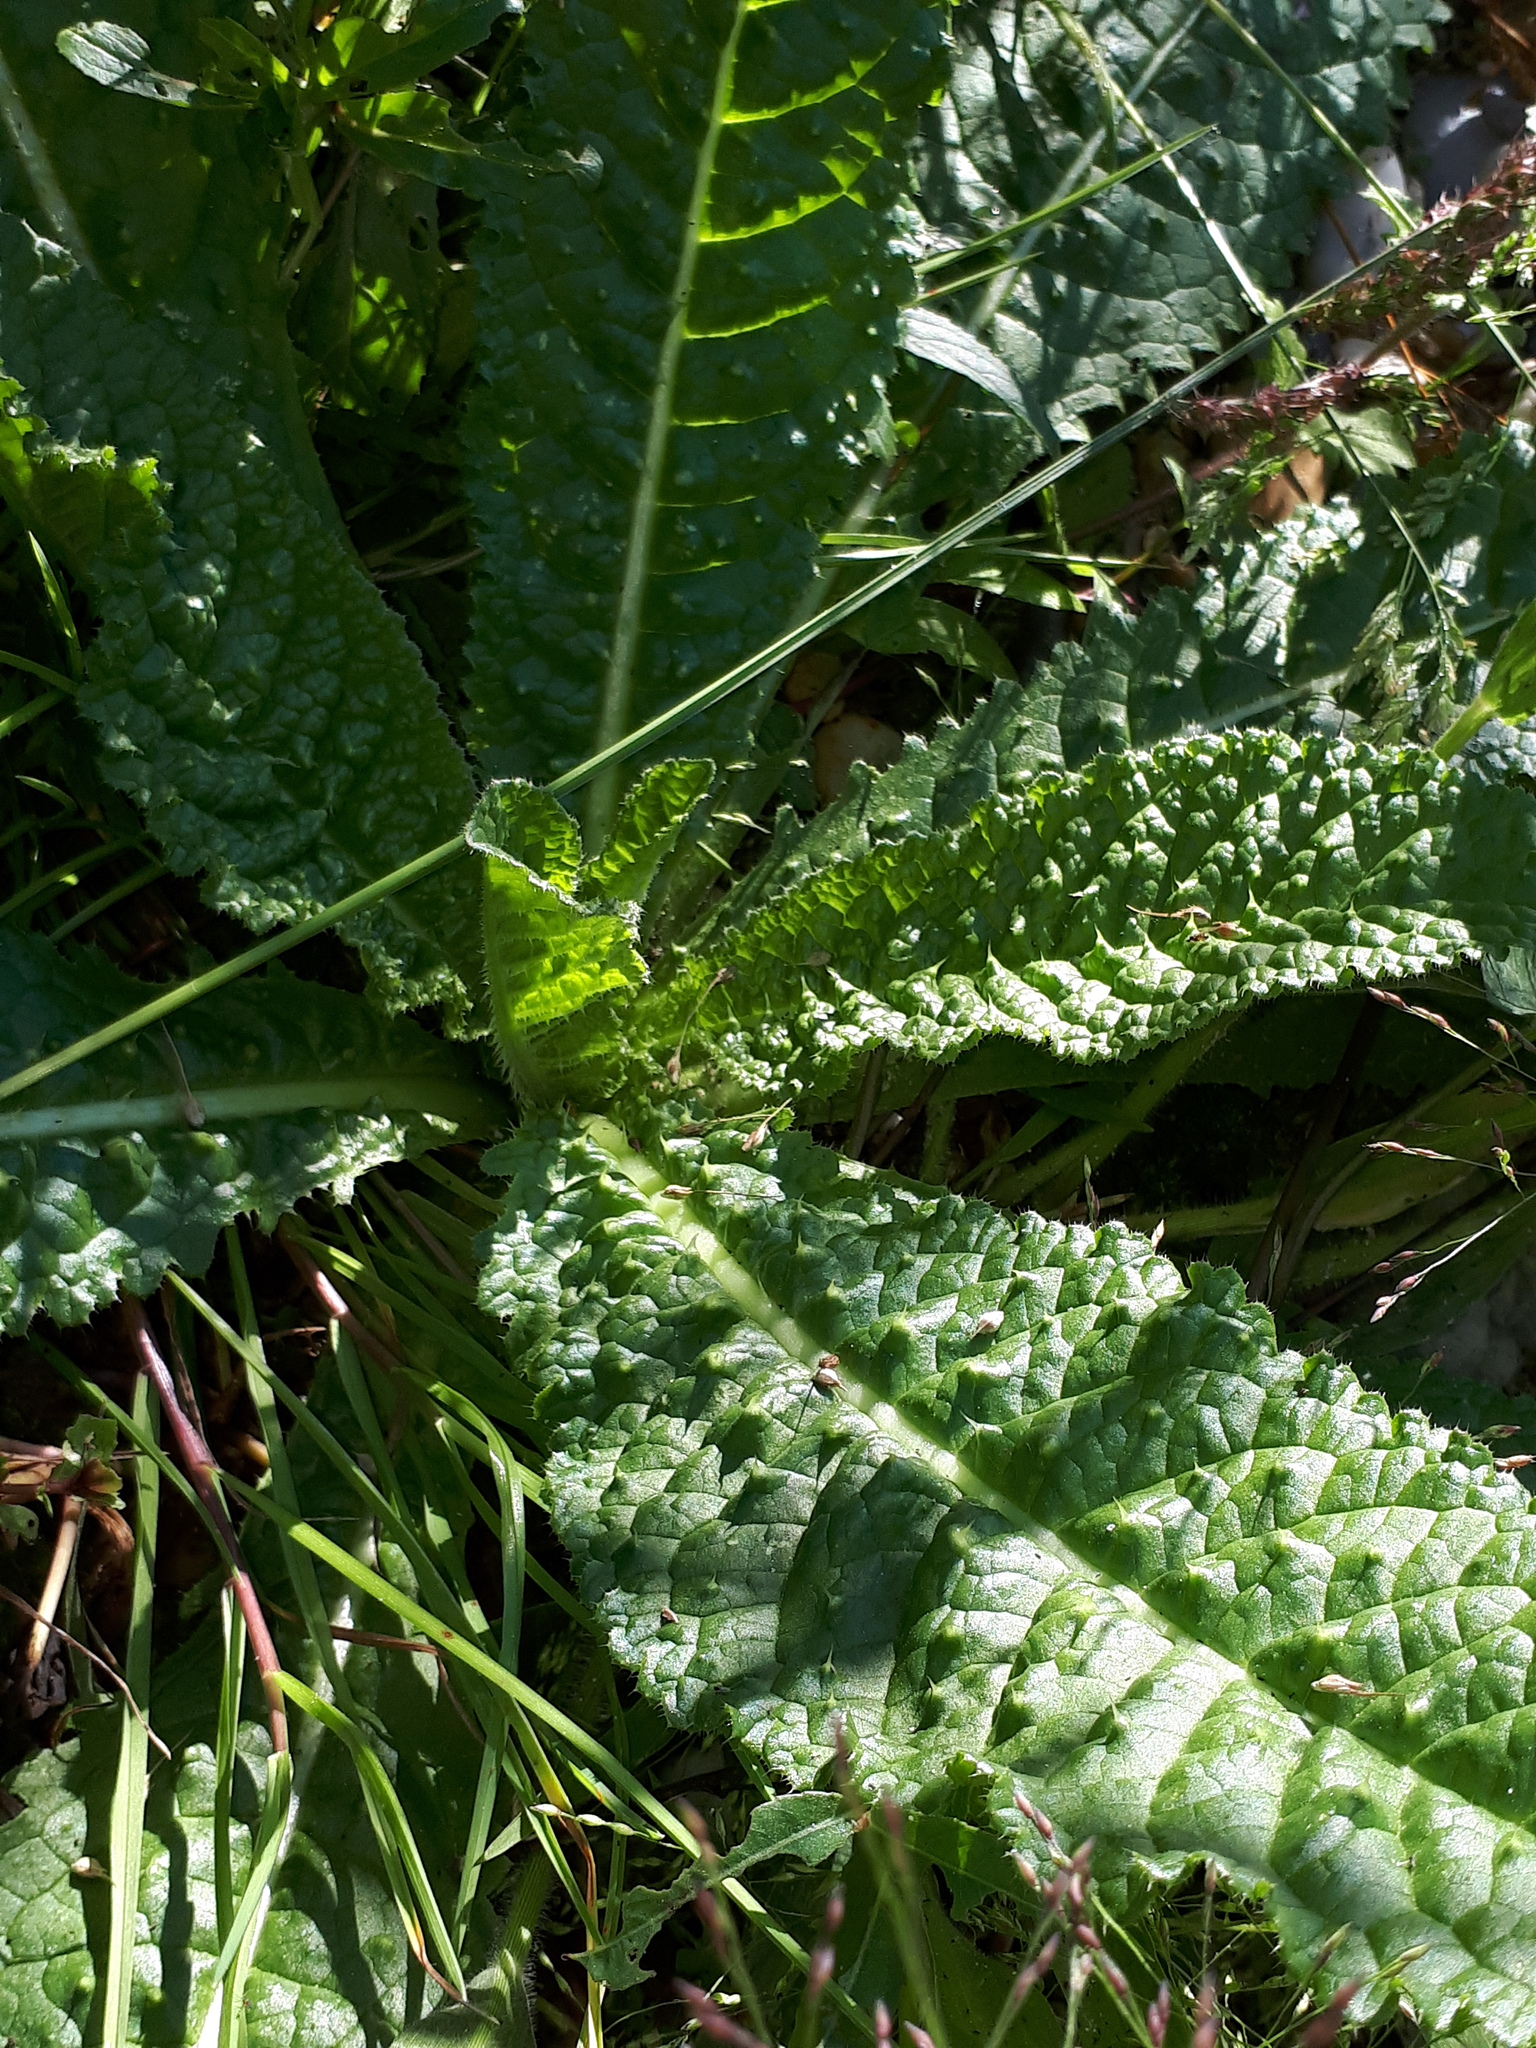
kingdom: Plantae
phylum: Tracheophyta
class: Magnoliopsida
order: Dipsacales
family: Caprifoliaceae
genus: Dipsacus
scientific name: Dipsacus fullonum
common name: Teasel
